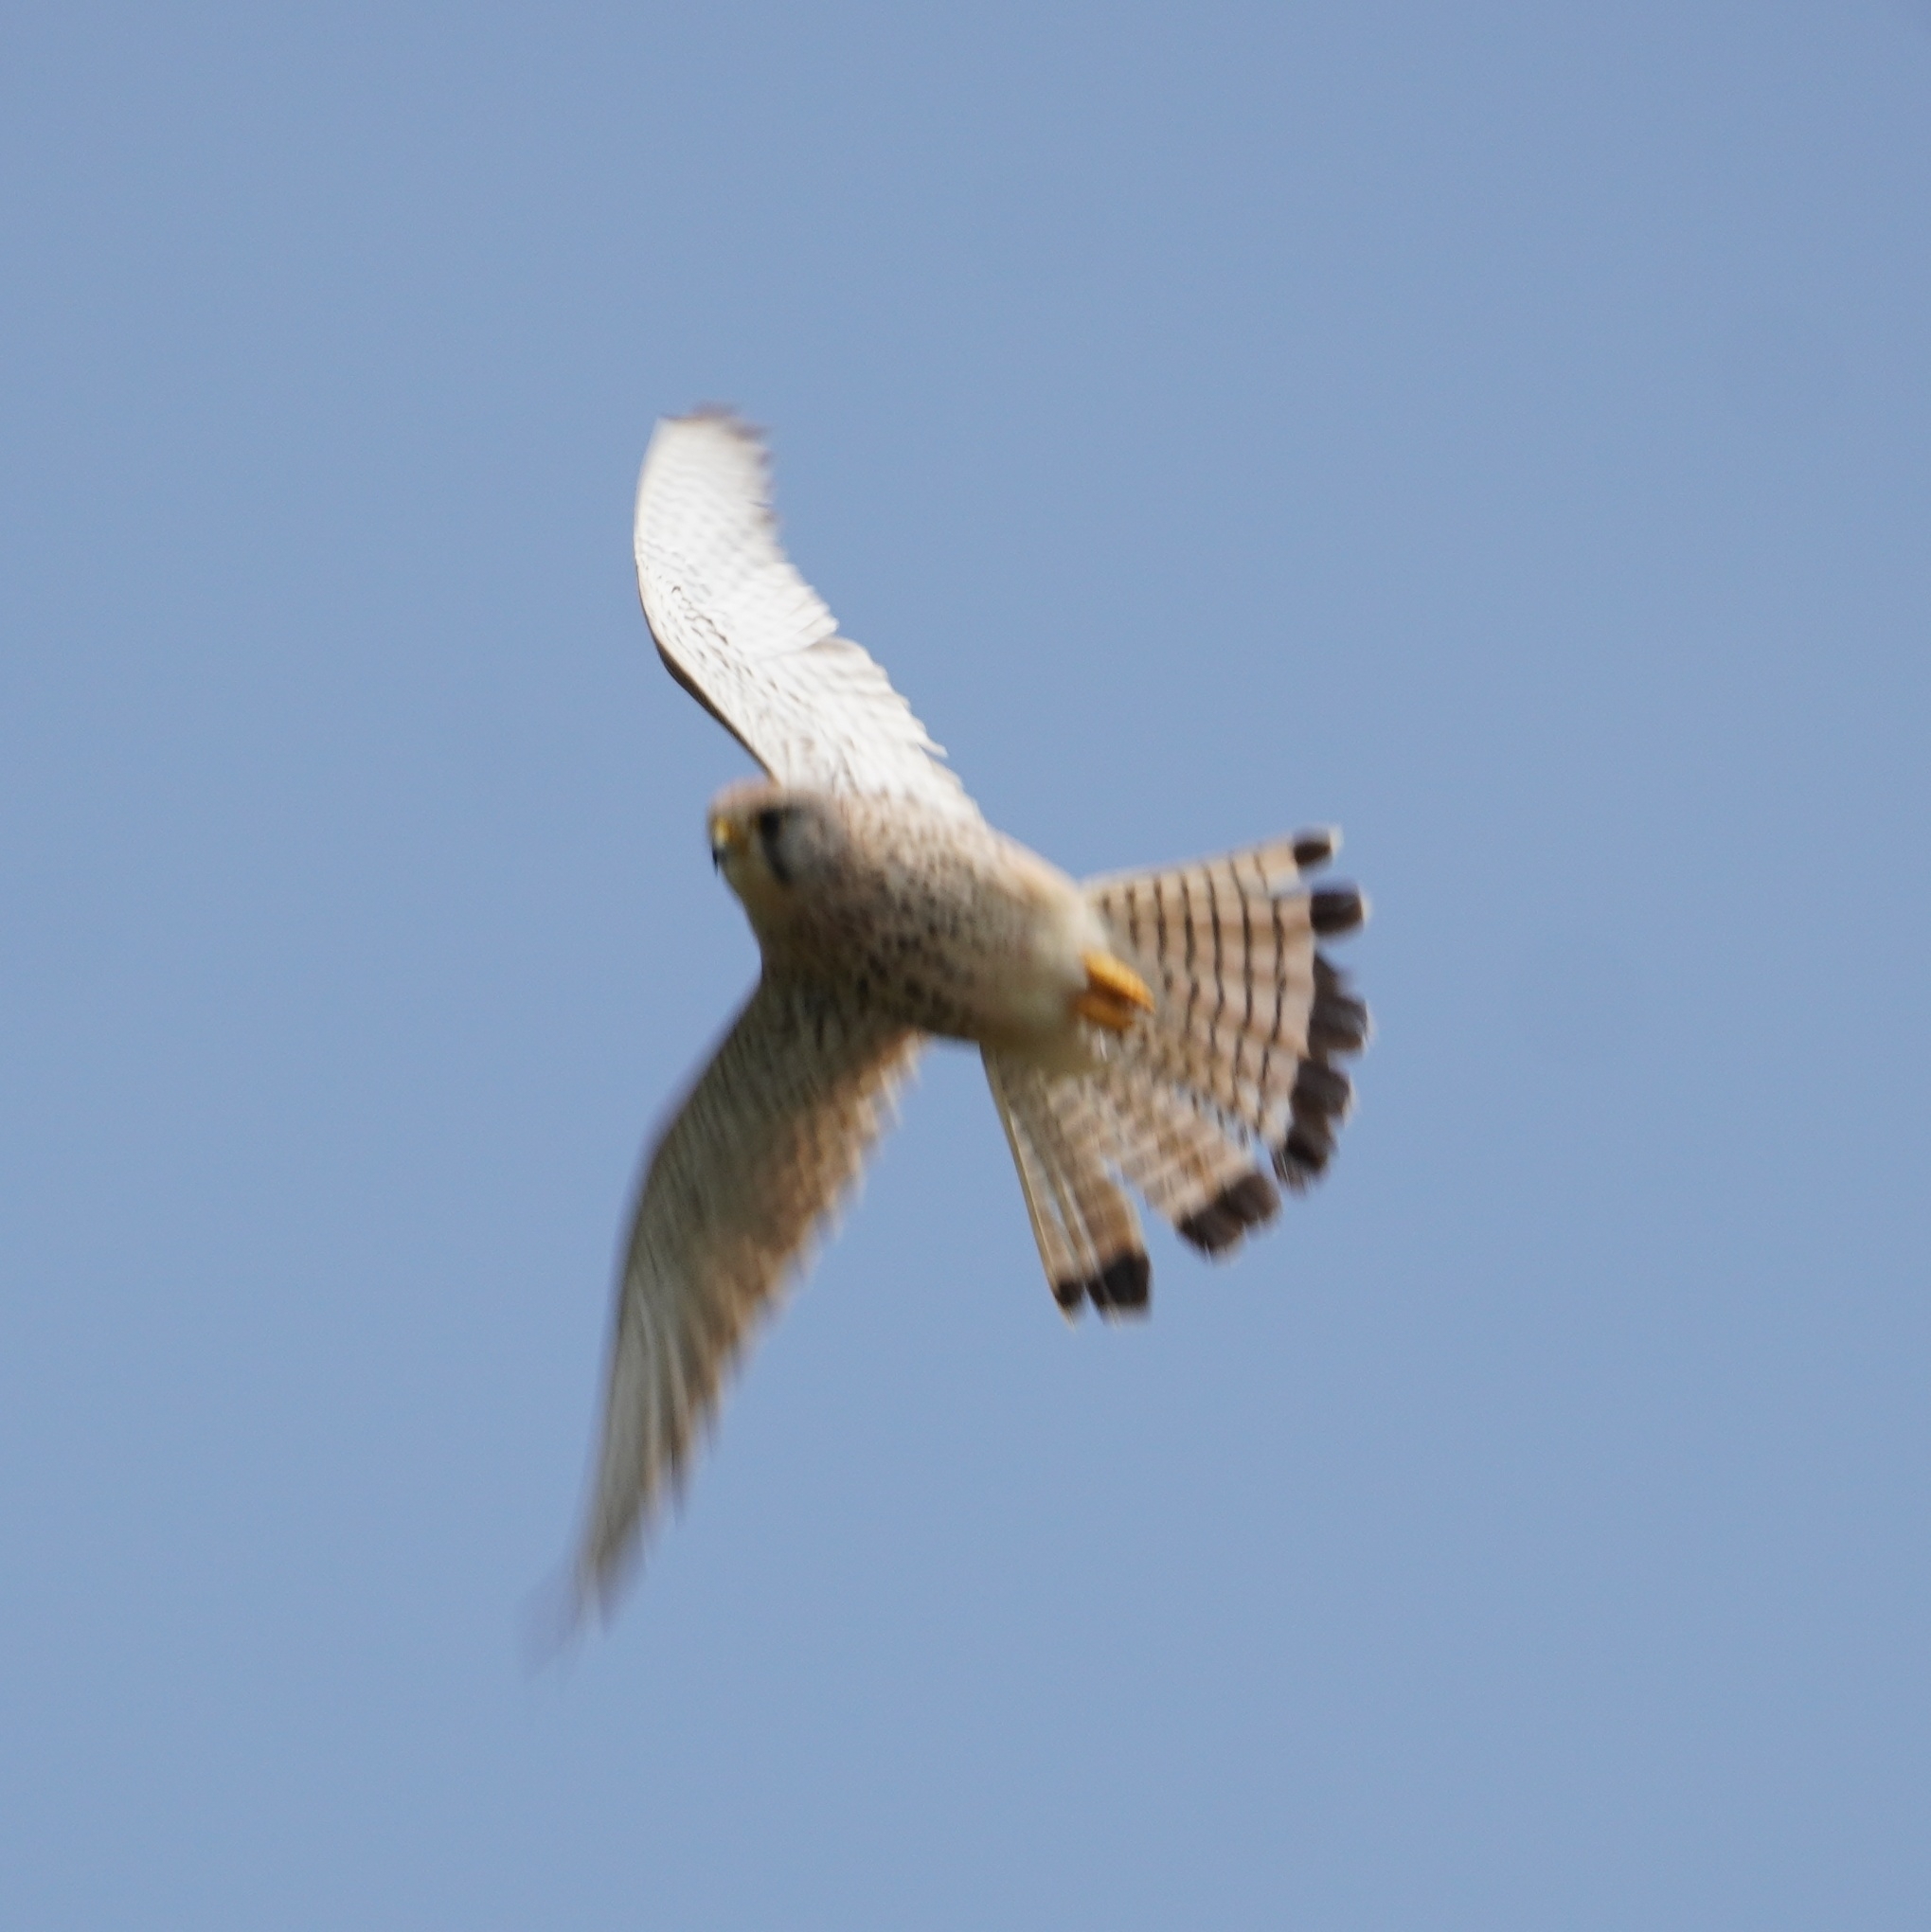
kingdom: Animalia
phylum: Chordata
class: Aves
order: Falconiformes
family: Falconidae
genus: Falco
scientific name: Falco tinnunculus
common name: Common kestrel
